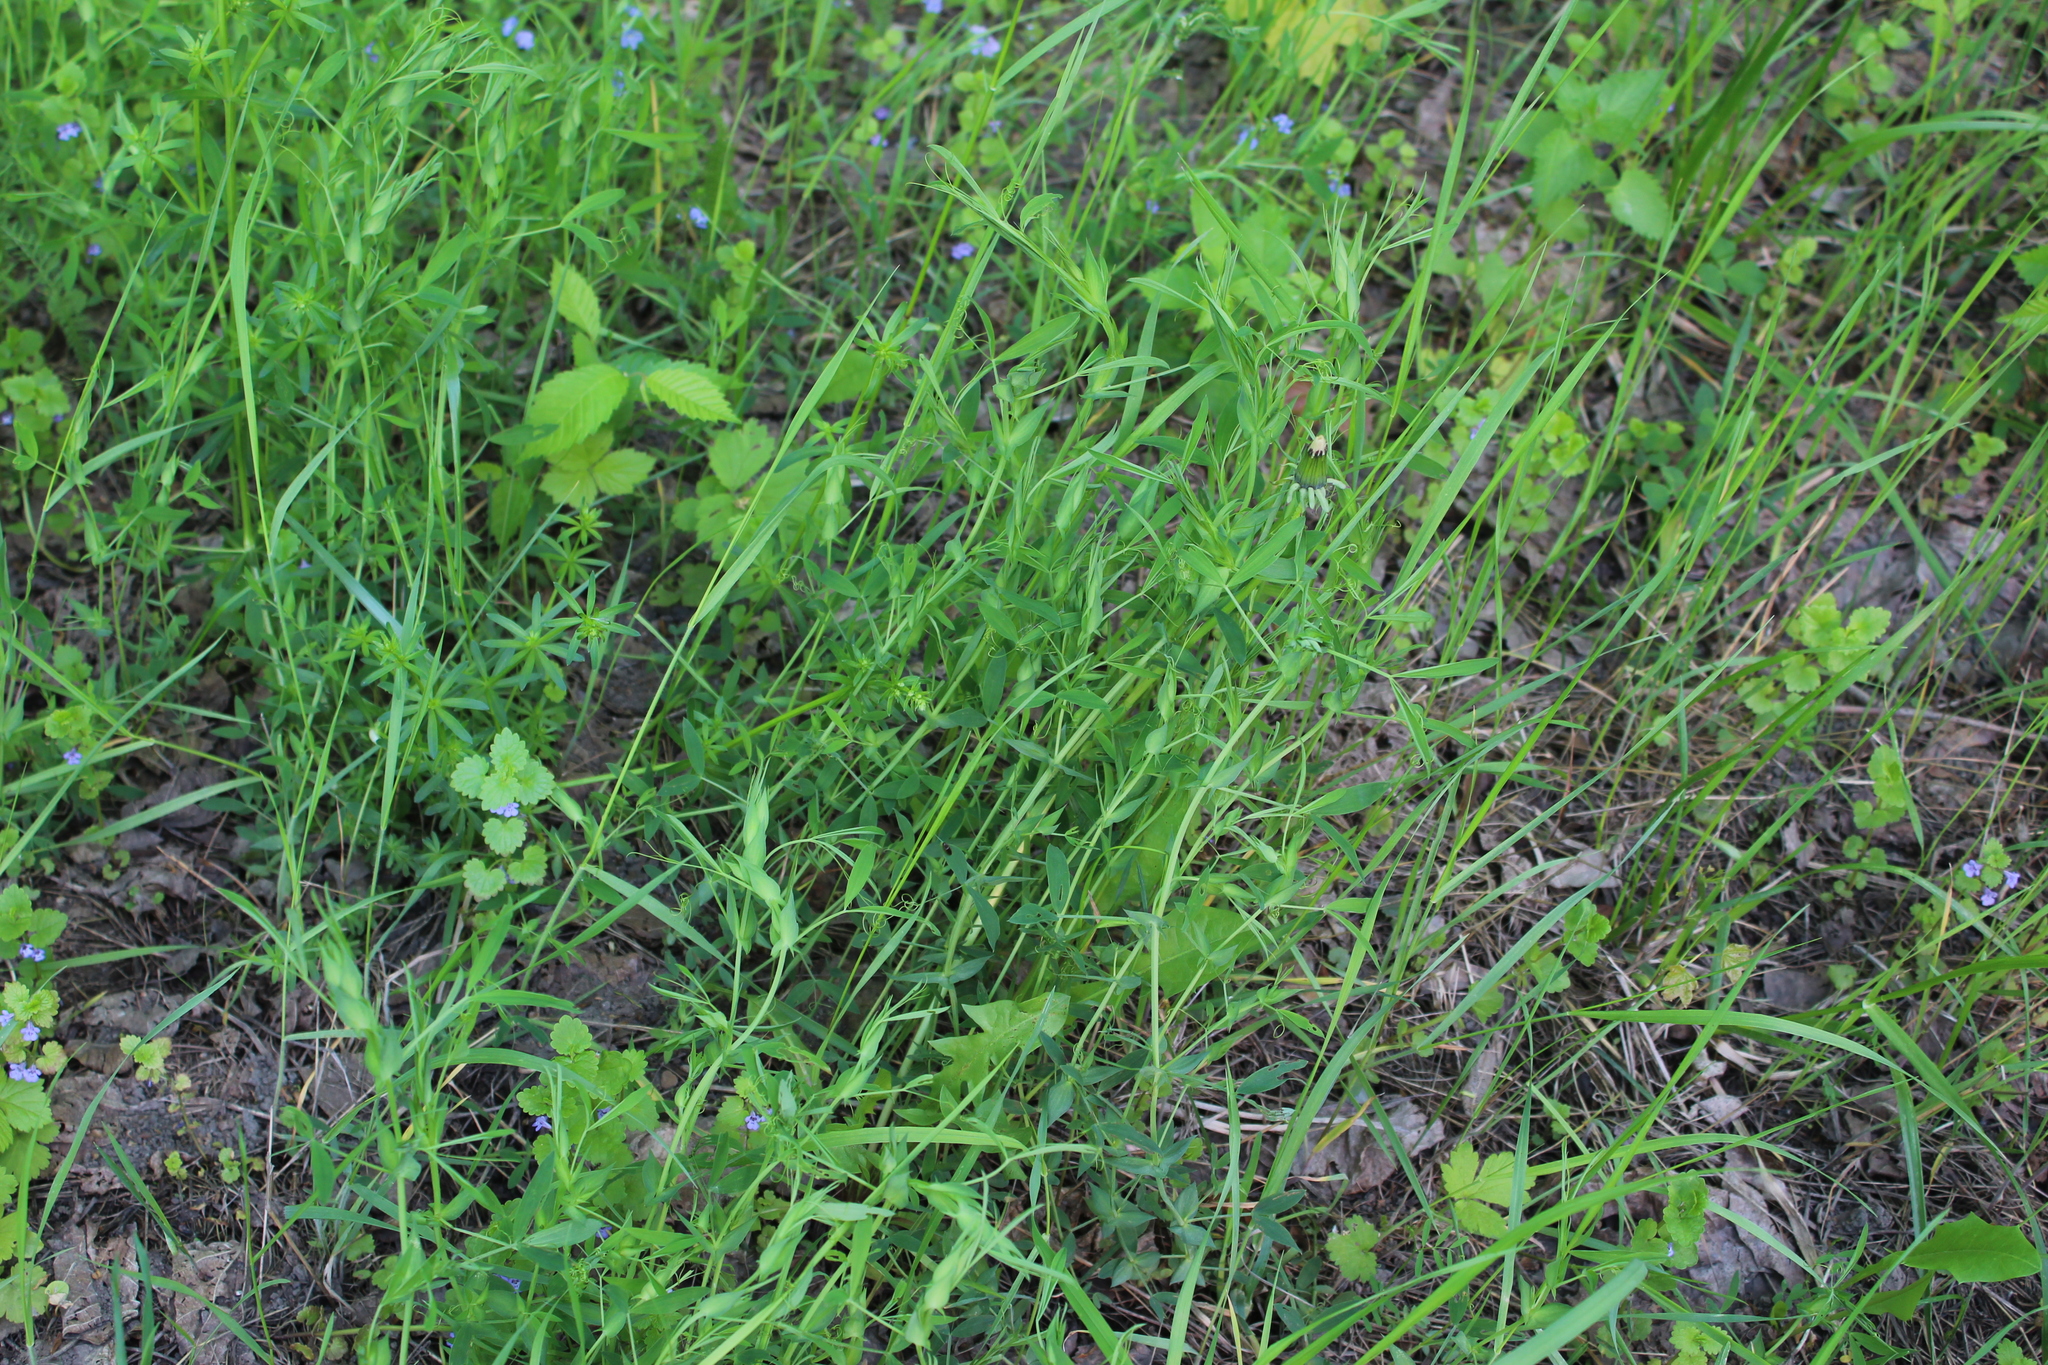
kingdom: Plantae
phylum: Tracheophyta
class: Magnoliopsida
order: Fabales
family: Fabaceae
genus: Lathyrus
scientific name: Lathyrus pratensis
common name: Meadow vetchling
